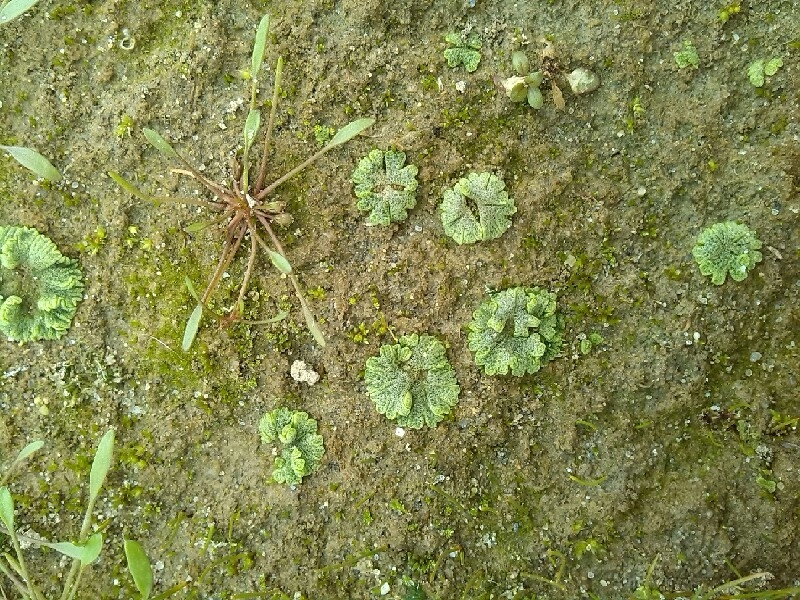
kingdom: Plantae
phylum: Marchantiophyta
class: Marchantiopsida
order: Marchantiales
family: Ricciaceae
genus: Riccia
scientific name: Riccia cavernosa
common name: Cavernous crystalwort
